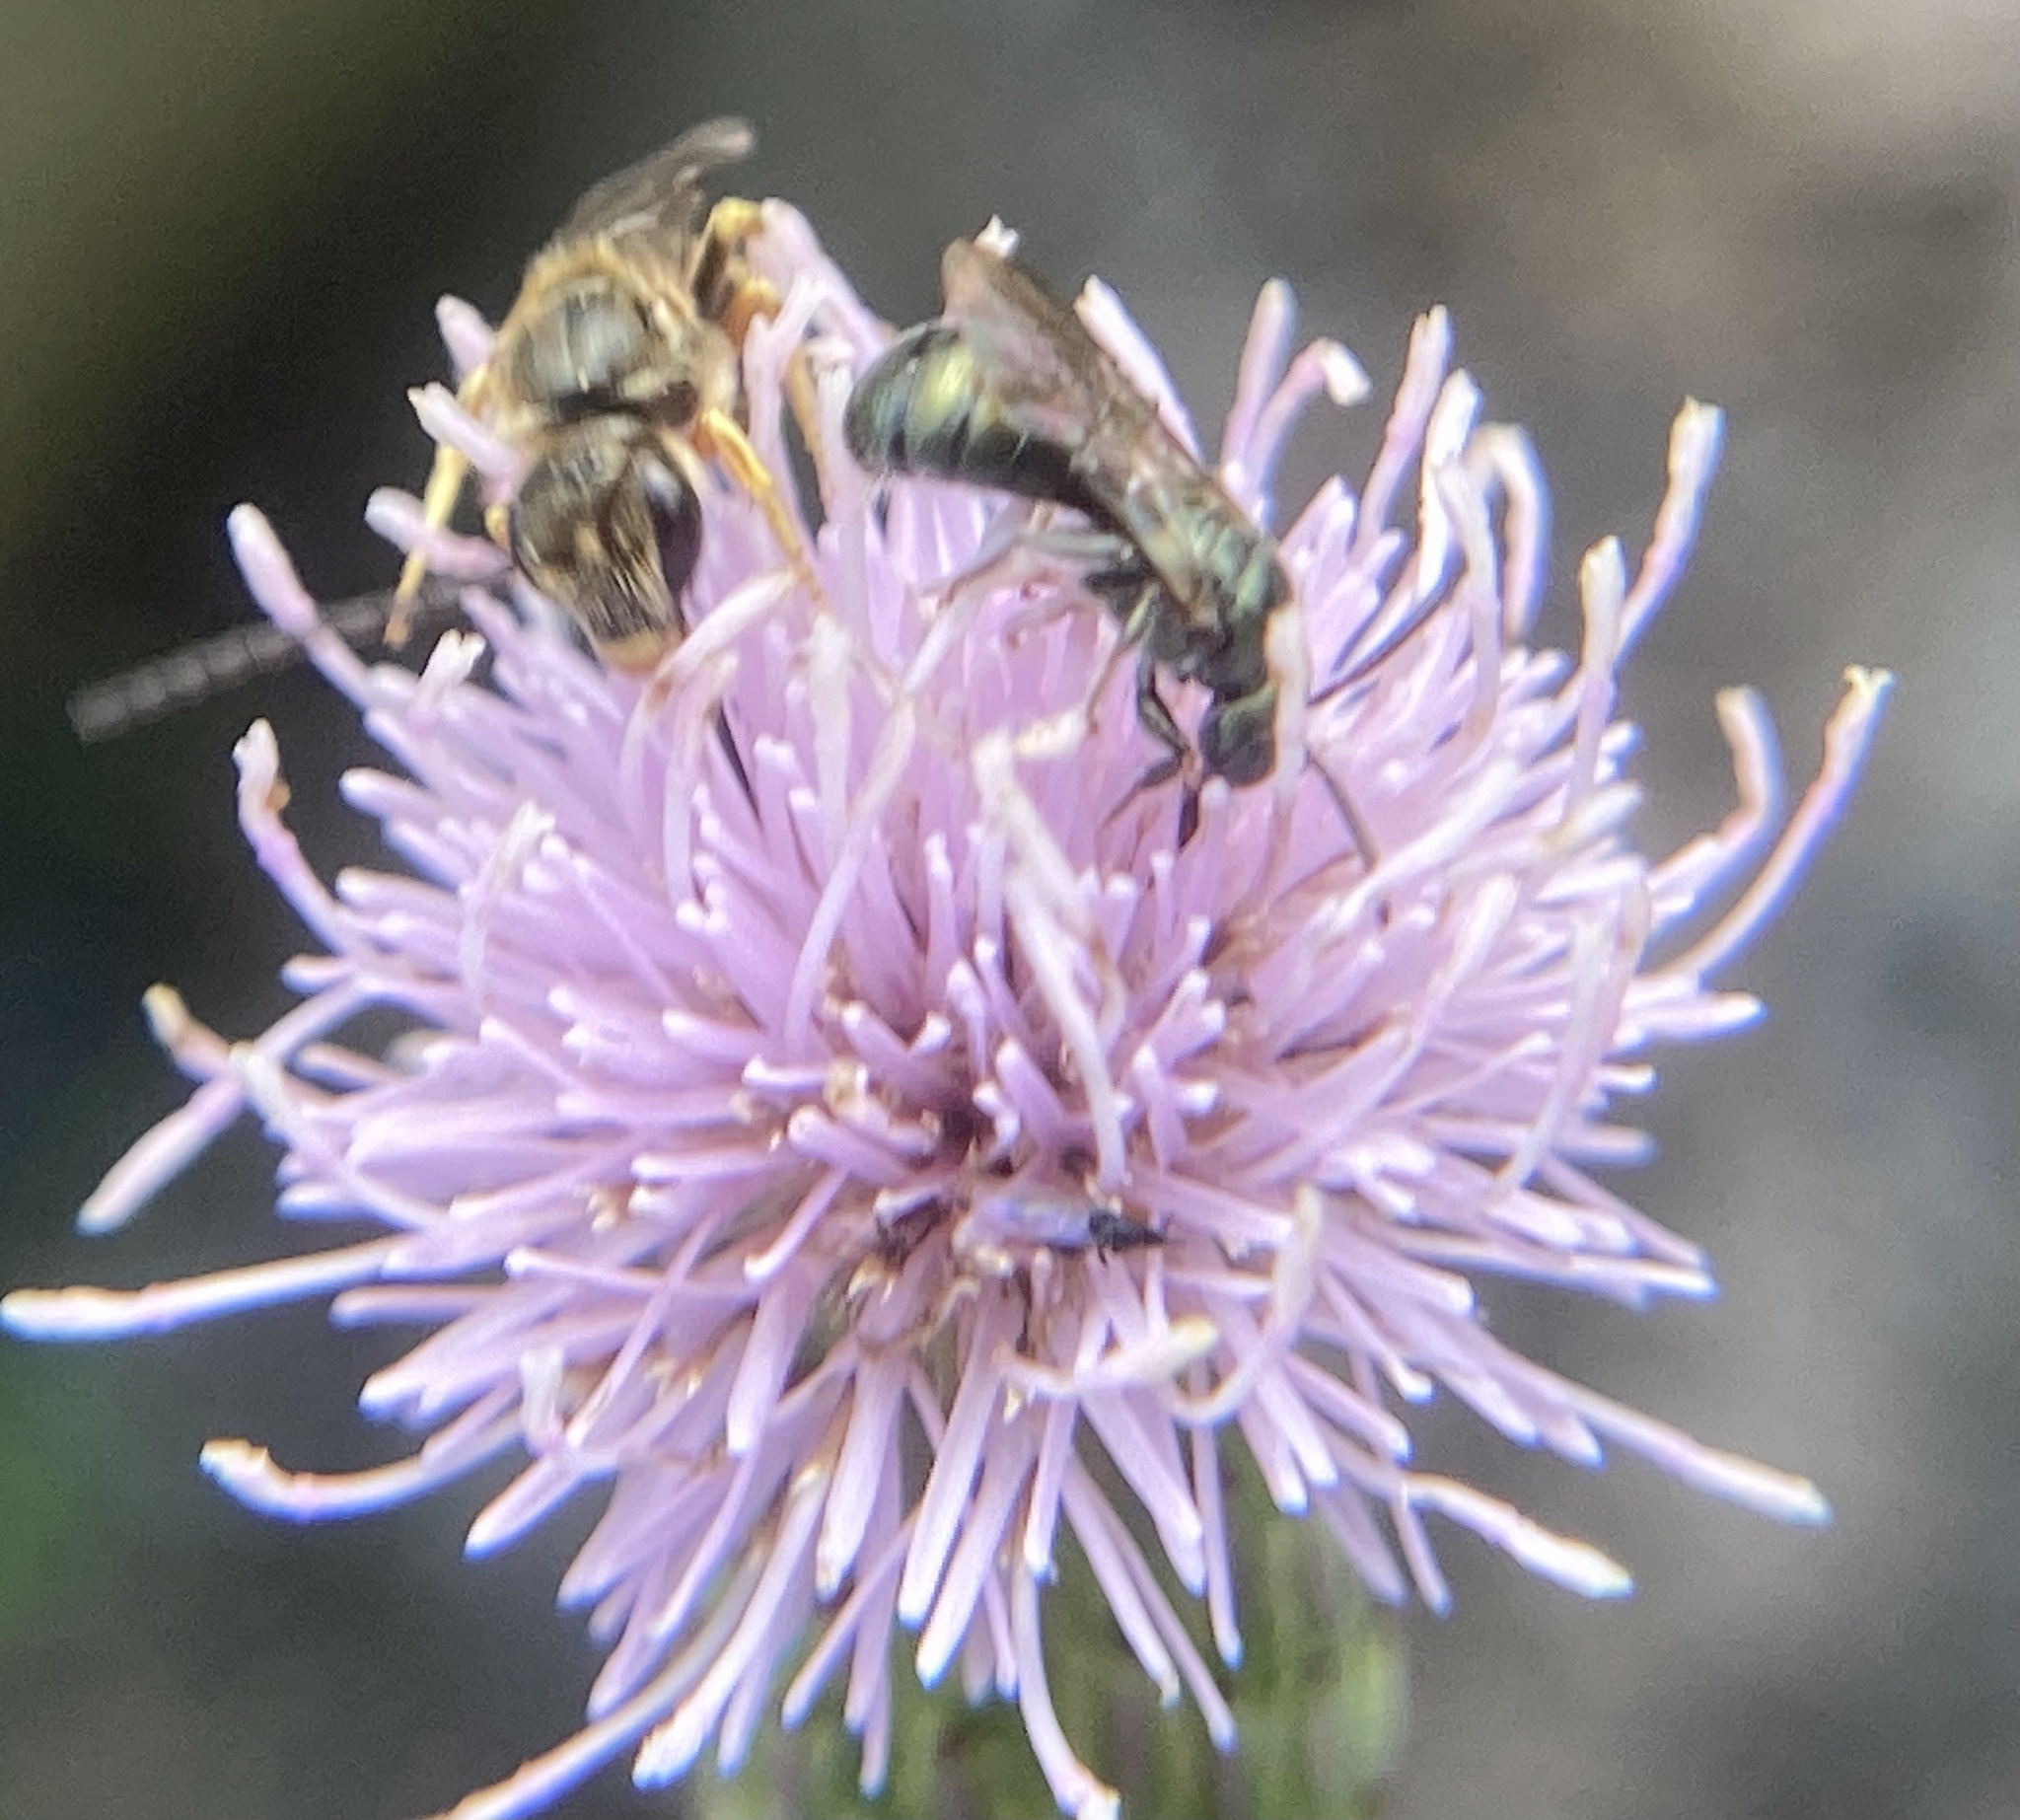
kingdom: Animalia
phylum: Arthropoda
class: Insecta
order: Hymenoptera
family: Halictidae
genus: Halictus
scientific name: Halictus confusus
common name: Southern bronze furrow bee
